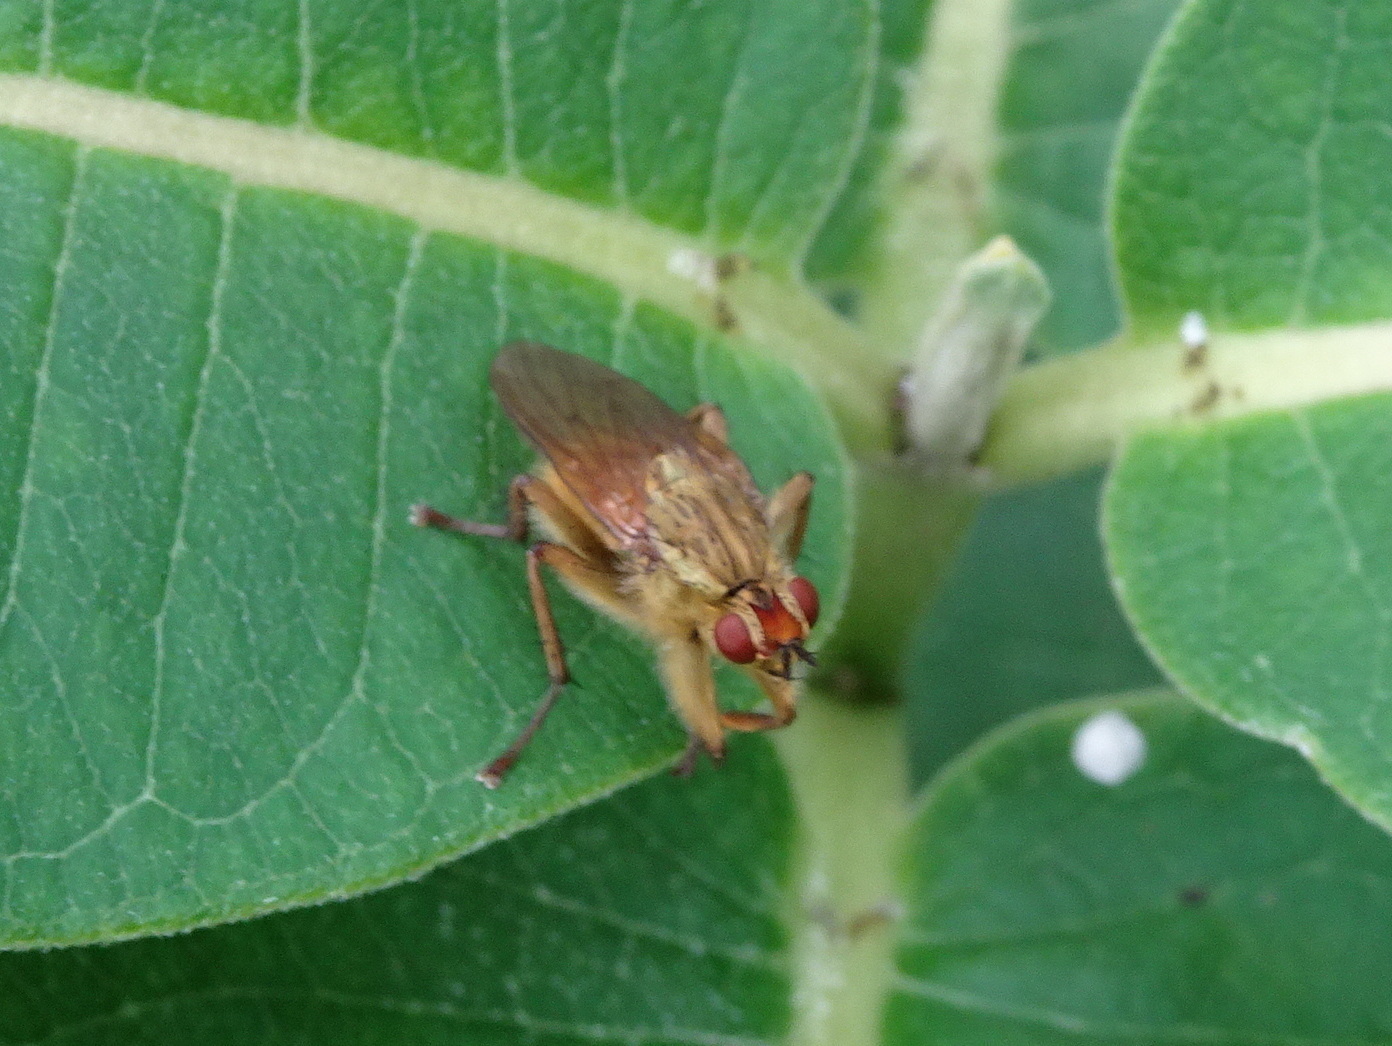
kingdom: Animalia
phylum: Arthropoda
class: Insecta
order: Diptera
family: Scathophagidae
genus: Scathophaga
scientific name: Scathophaga stercoraria
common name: Yellow dung fly
